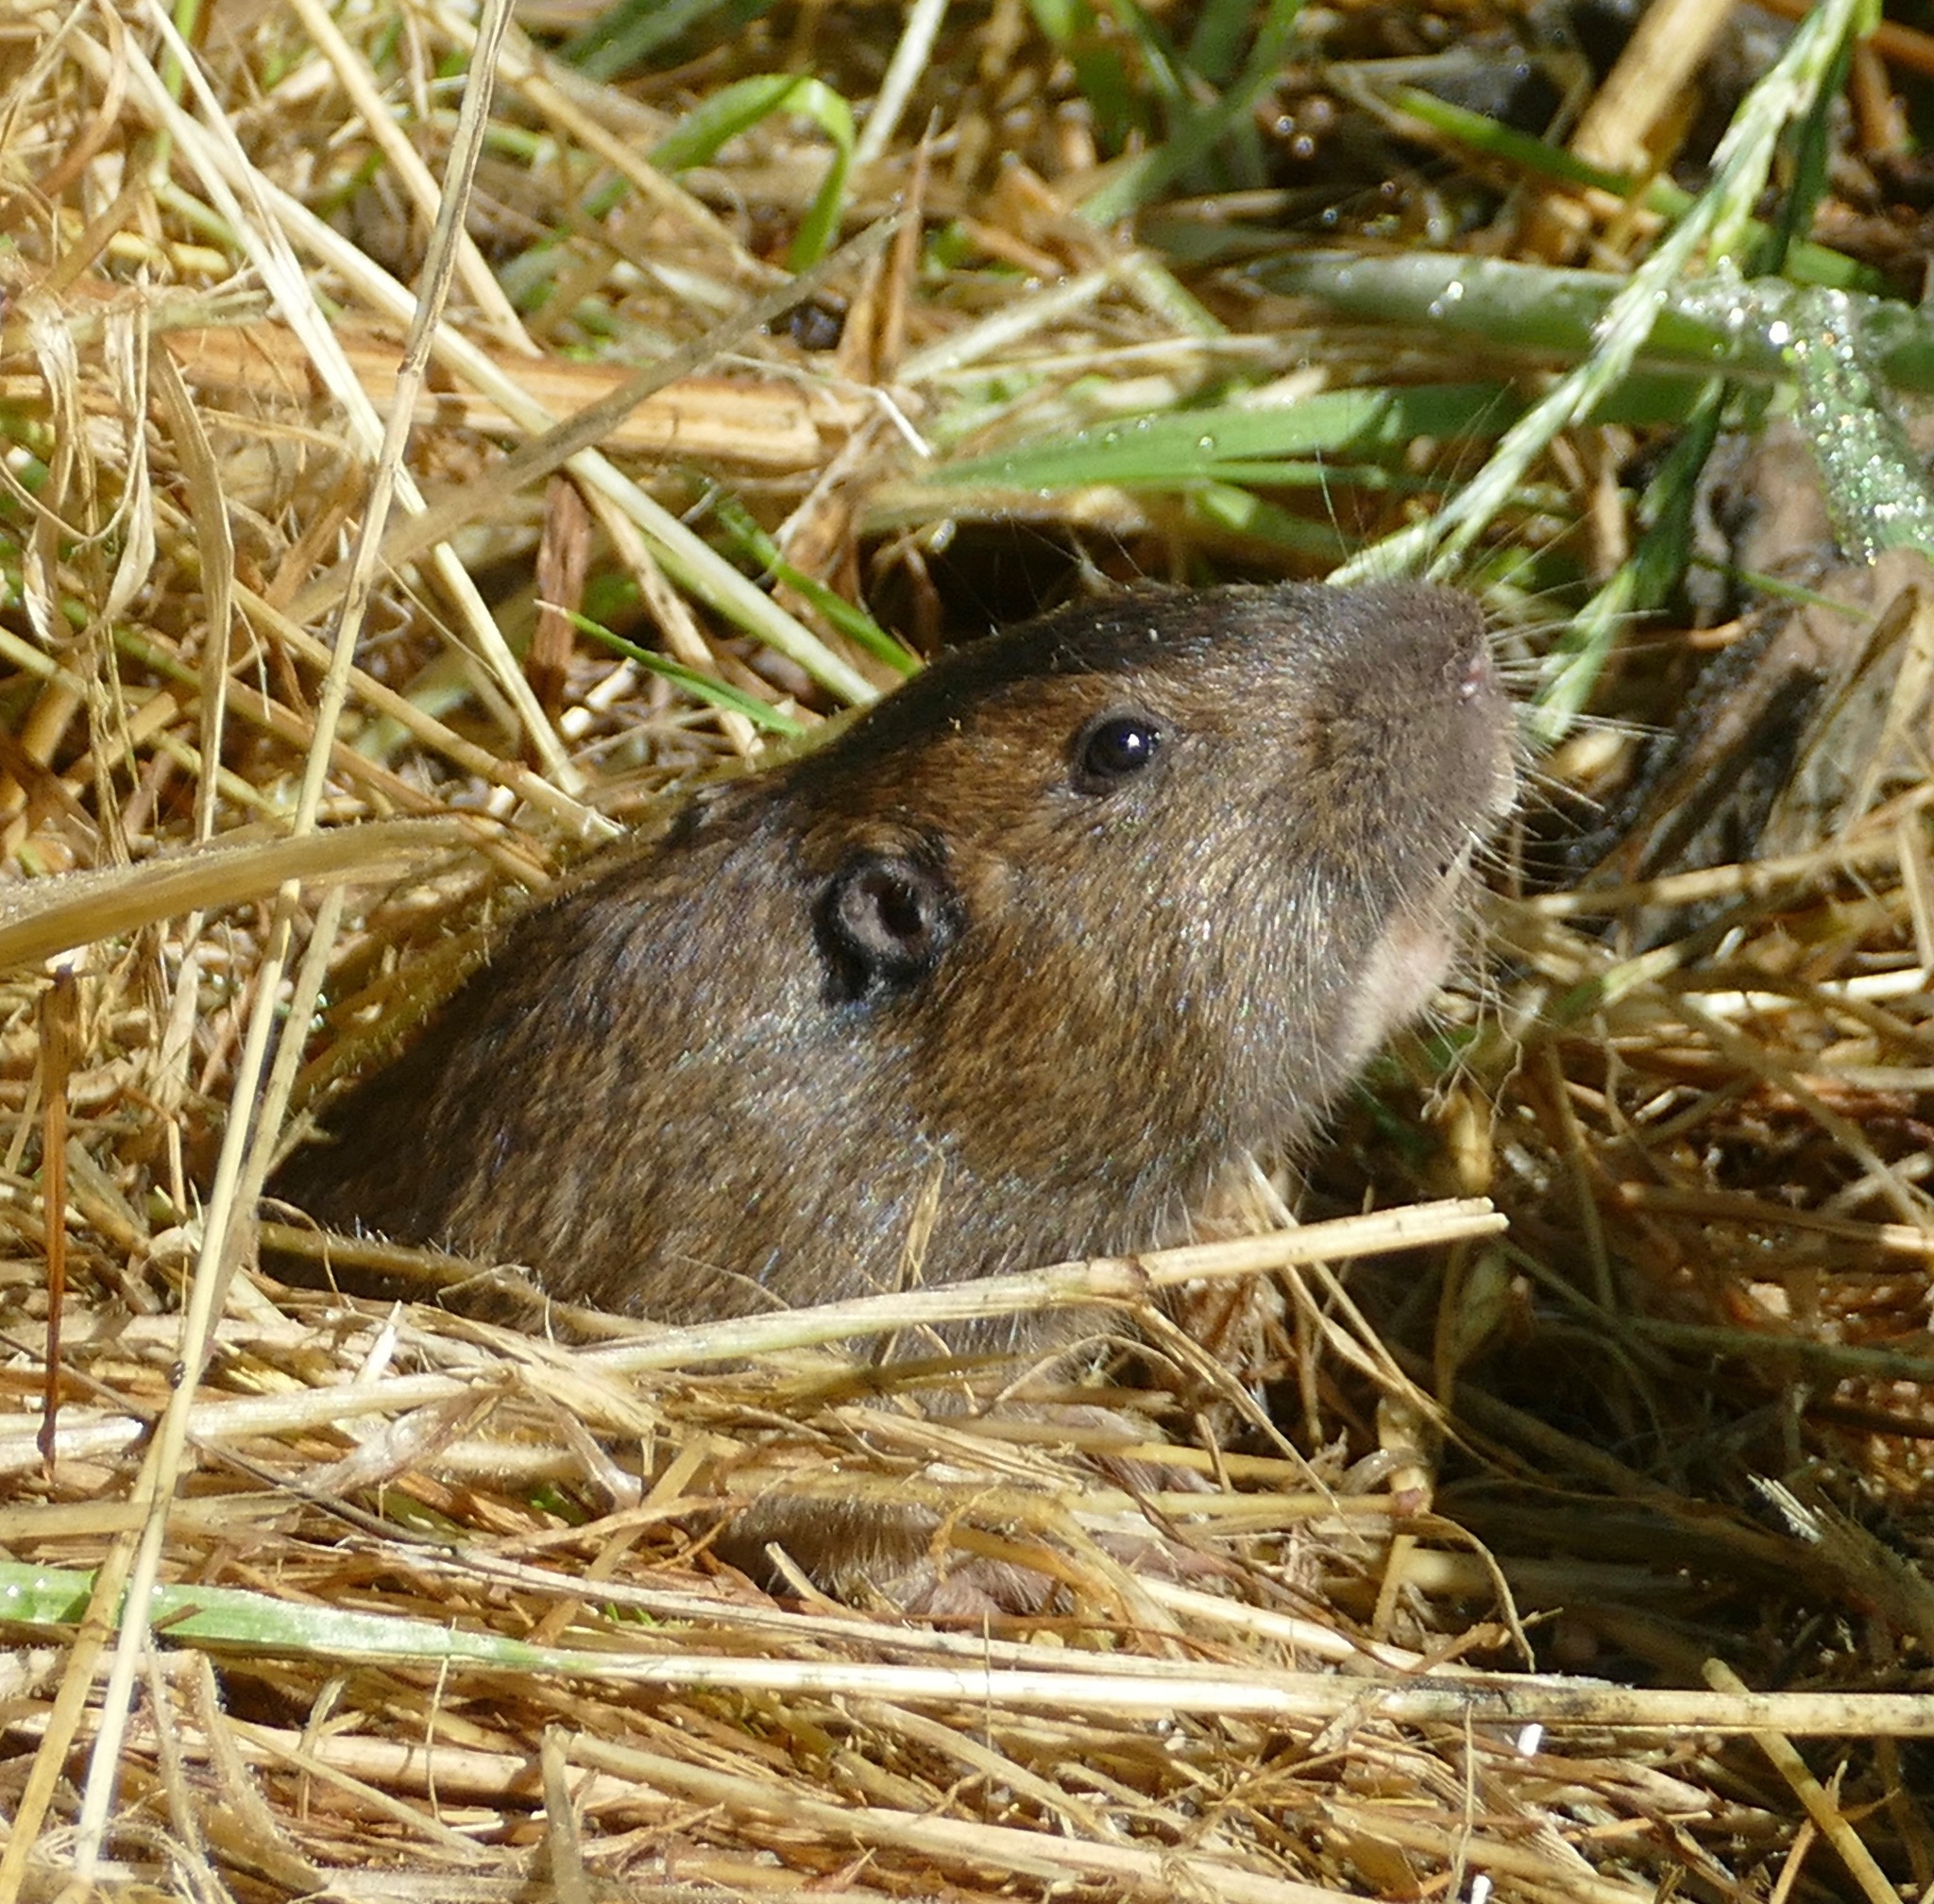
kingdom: Animalia
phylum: Chordata
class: Mammalia
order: Rodentia
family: Geomyidae
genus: Thomomys
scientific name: Thomomys bottae
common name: Botta's pocket gopher
